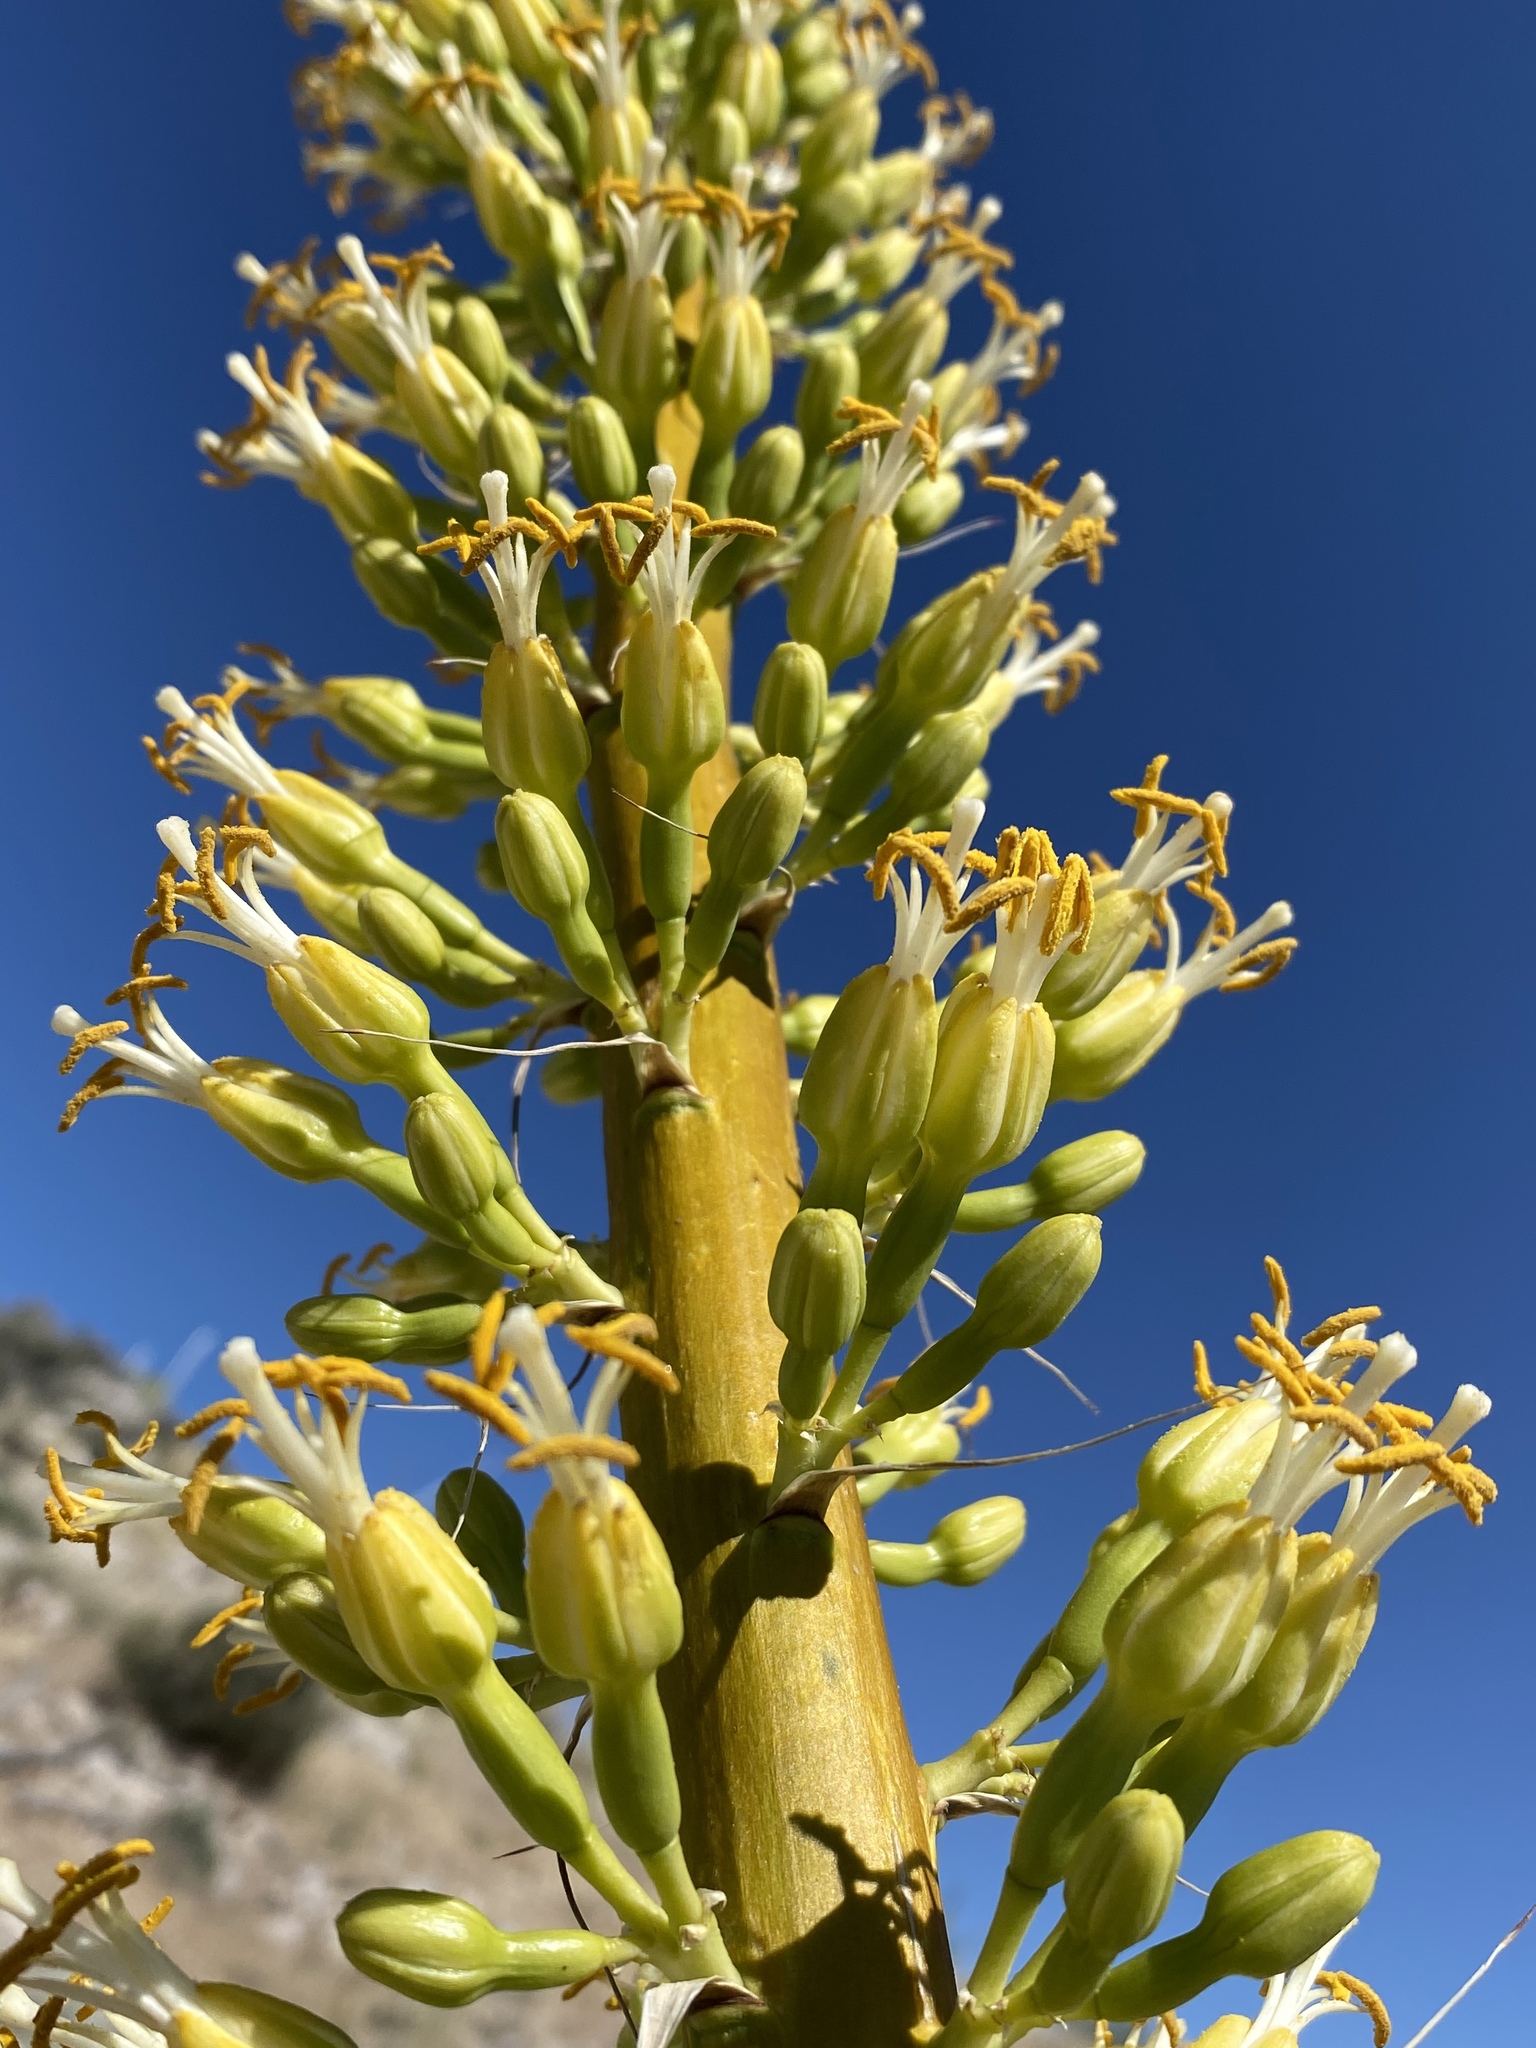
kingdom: Plantae
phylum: Tracheophyta
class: Liliopsida
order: Asparagales
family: Asparagaceae
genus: Agave
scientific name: Agave utahensis
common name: Utah agave
